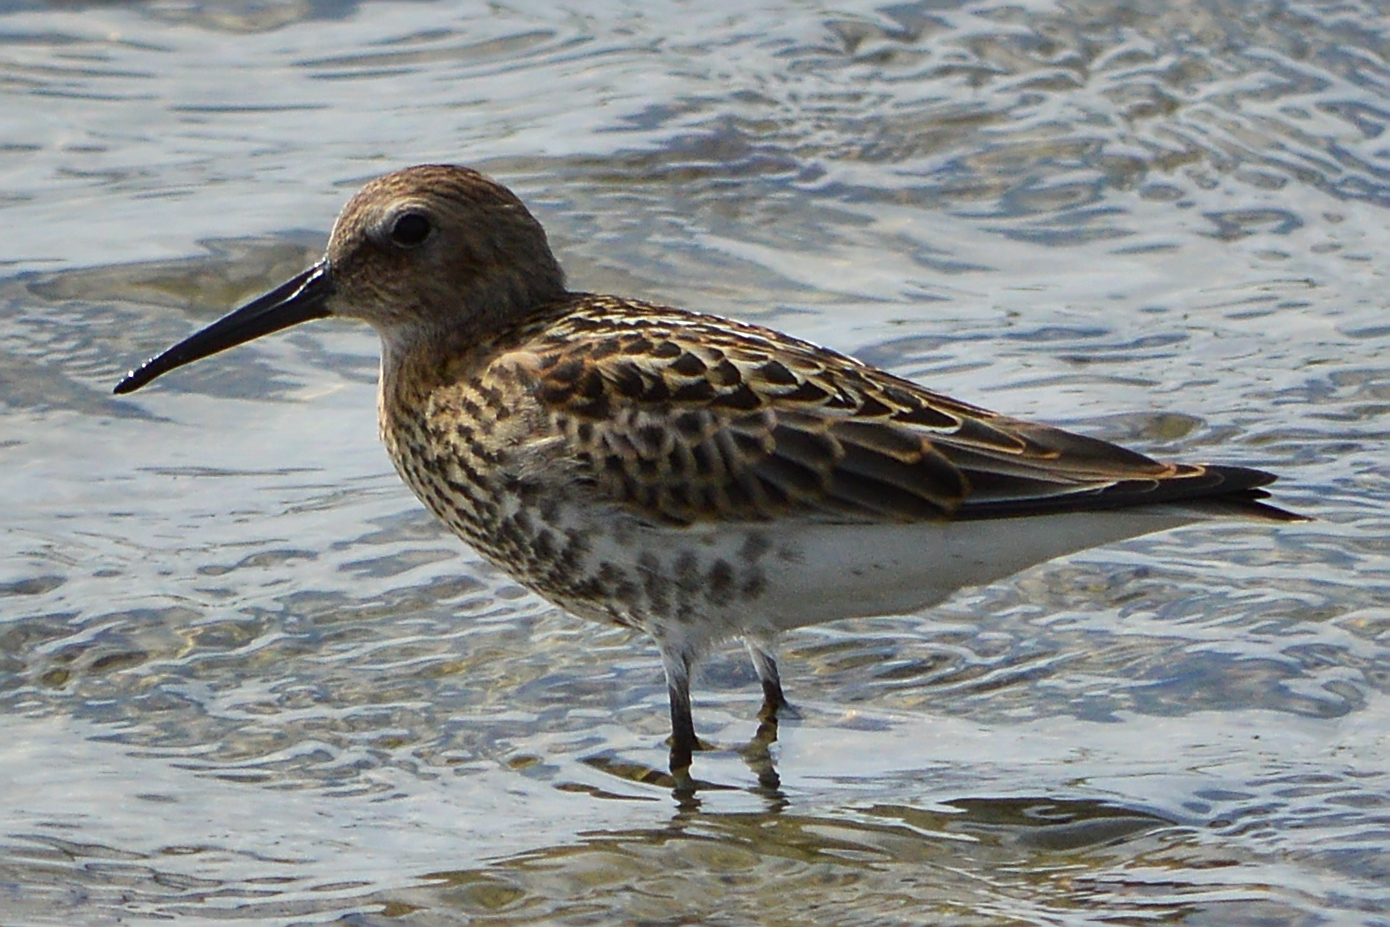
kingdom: Animalia
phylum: Chordata
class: Aves
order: Charadriiformes
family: Scolopacidae
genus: Calidris
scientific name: Calidris alpina
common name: Dunlin
